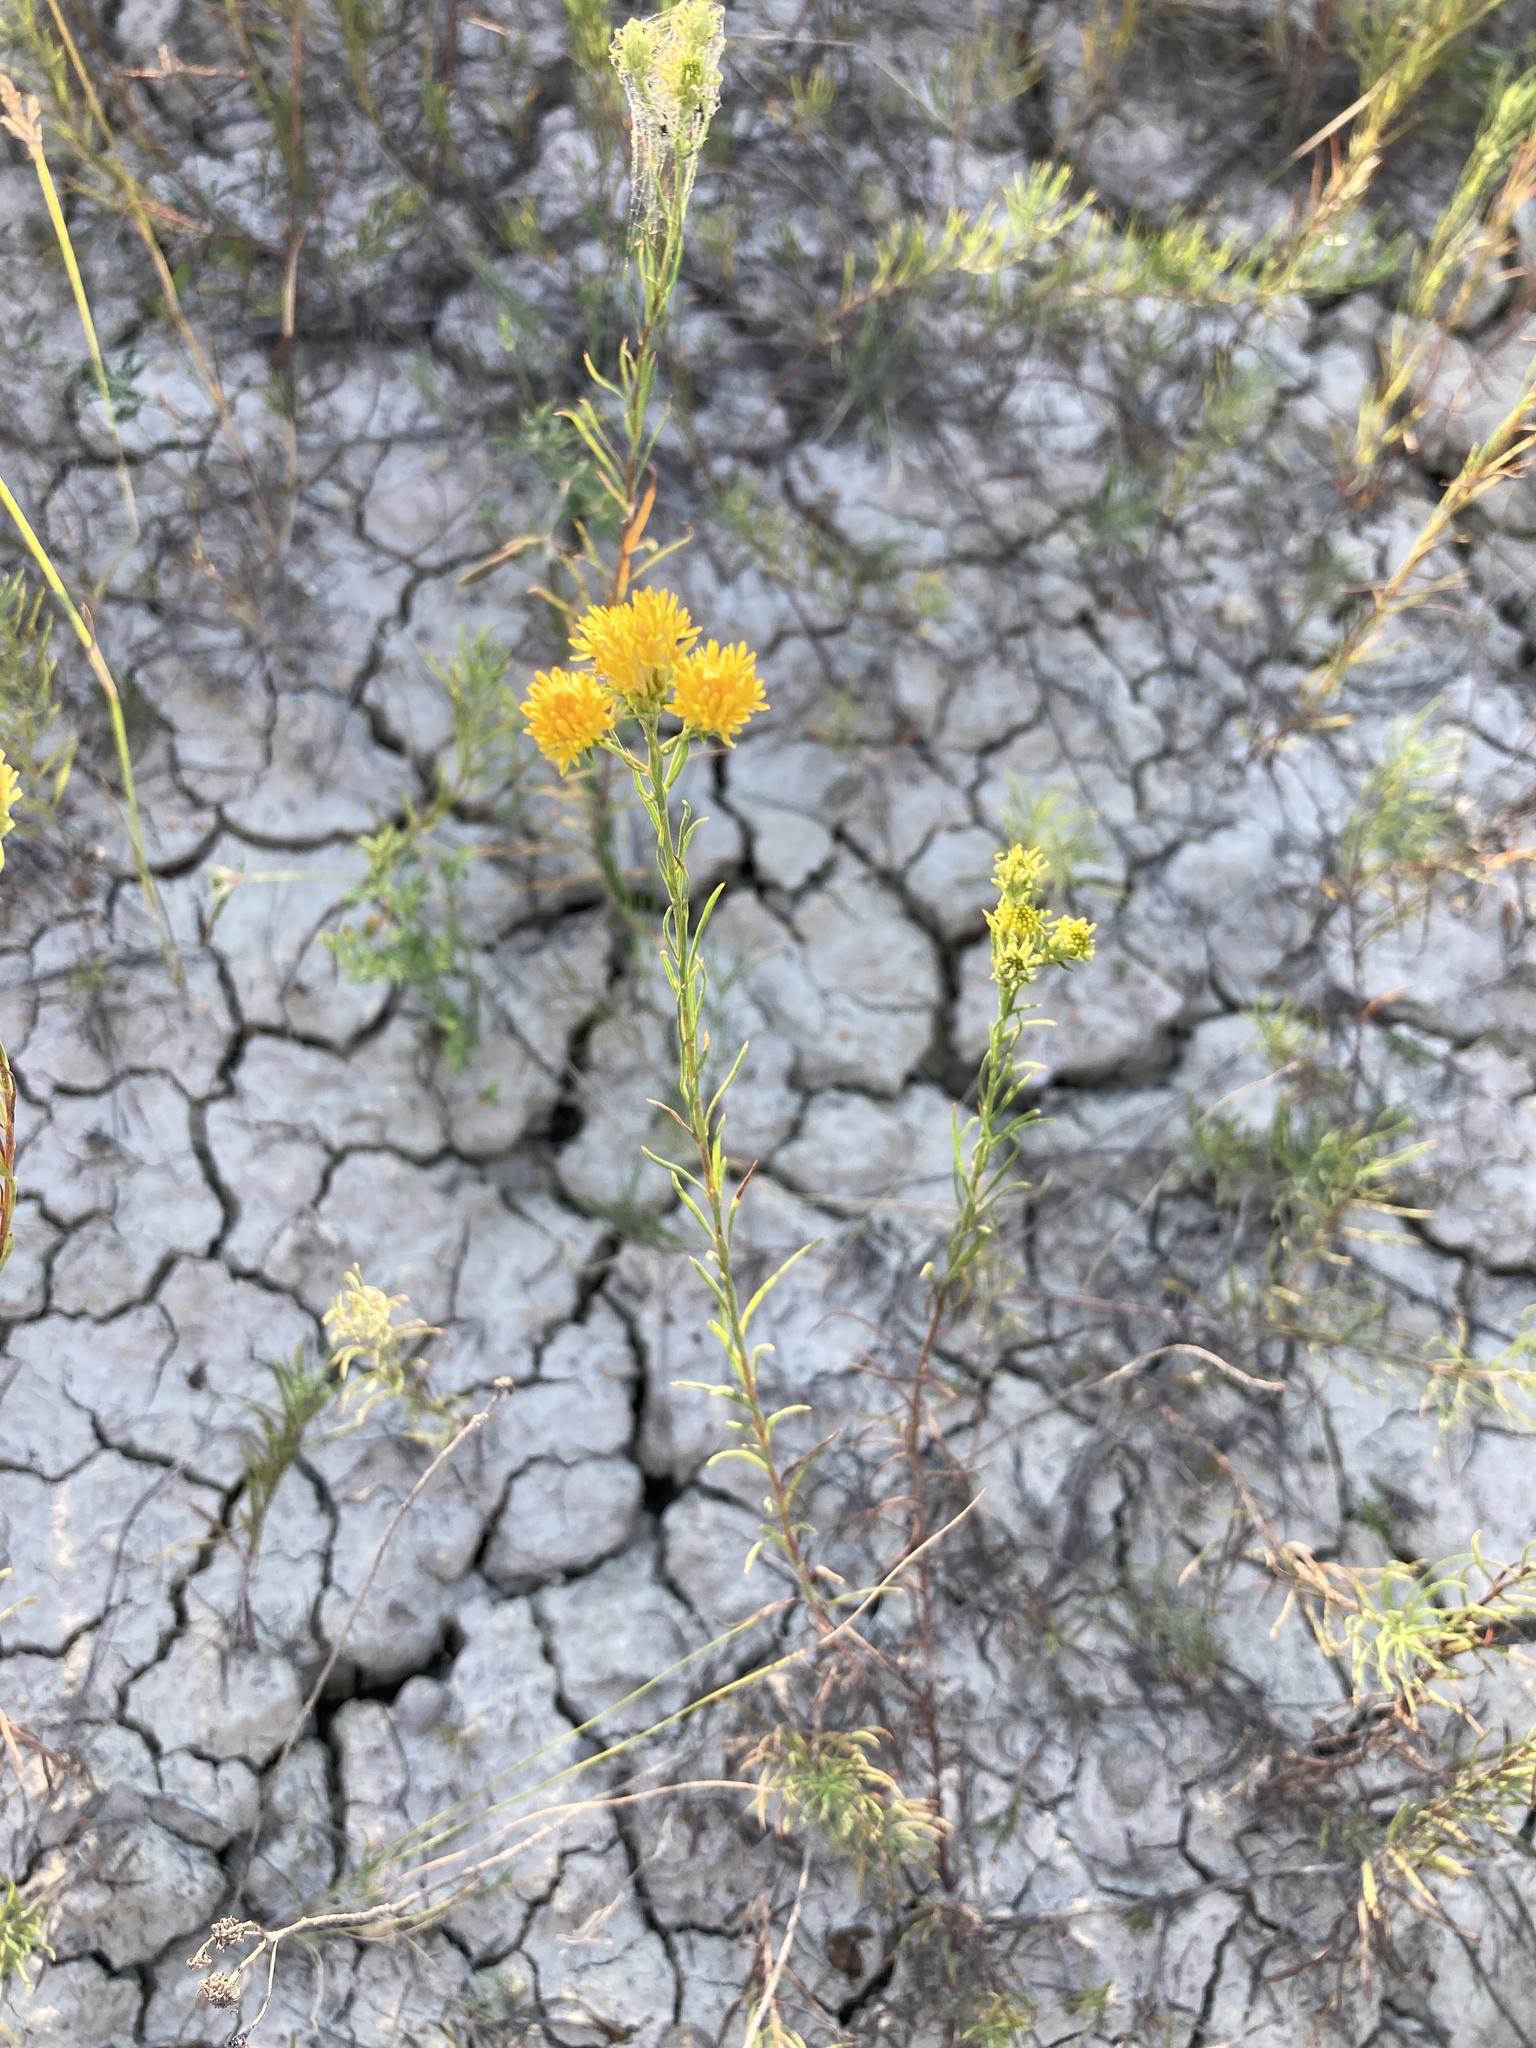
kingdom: Plantae
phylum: Tracheophyta
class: Magnoliopsida
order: Asterales
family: Asteraceae
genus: Galatella
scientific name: Galatella linosyris
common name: Goldilocks aster
